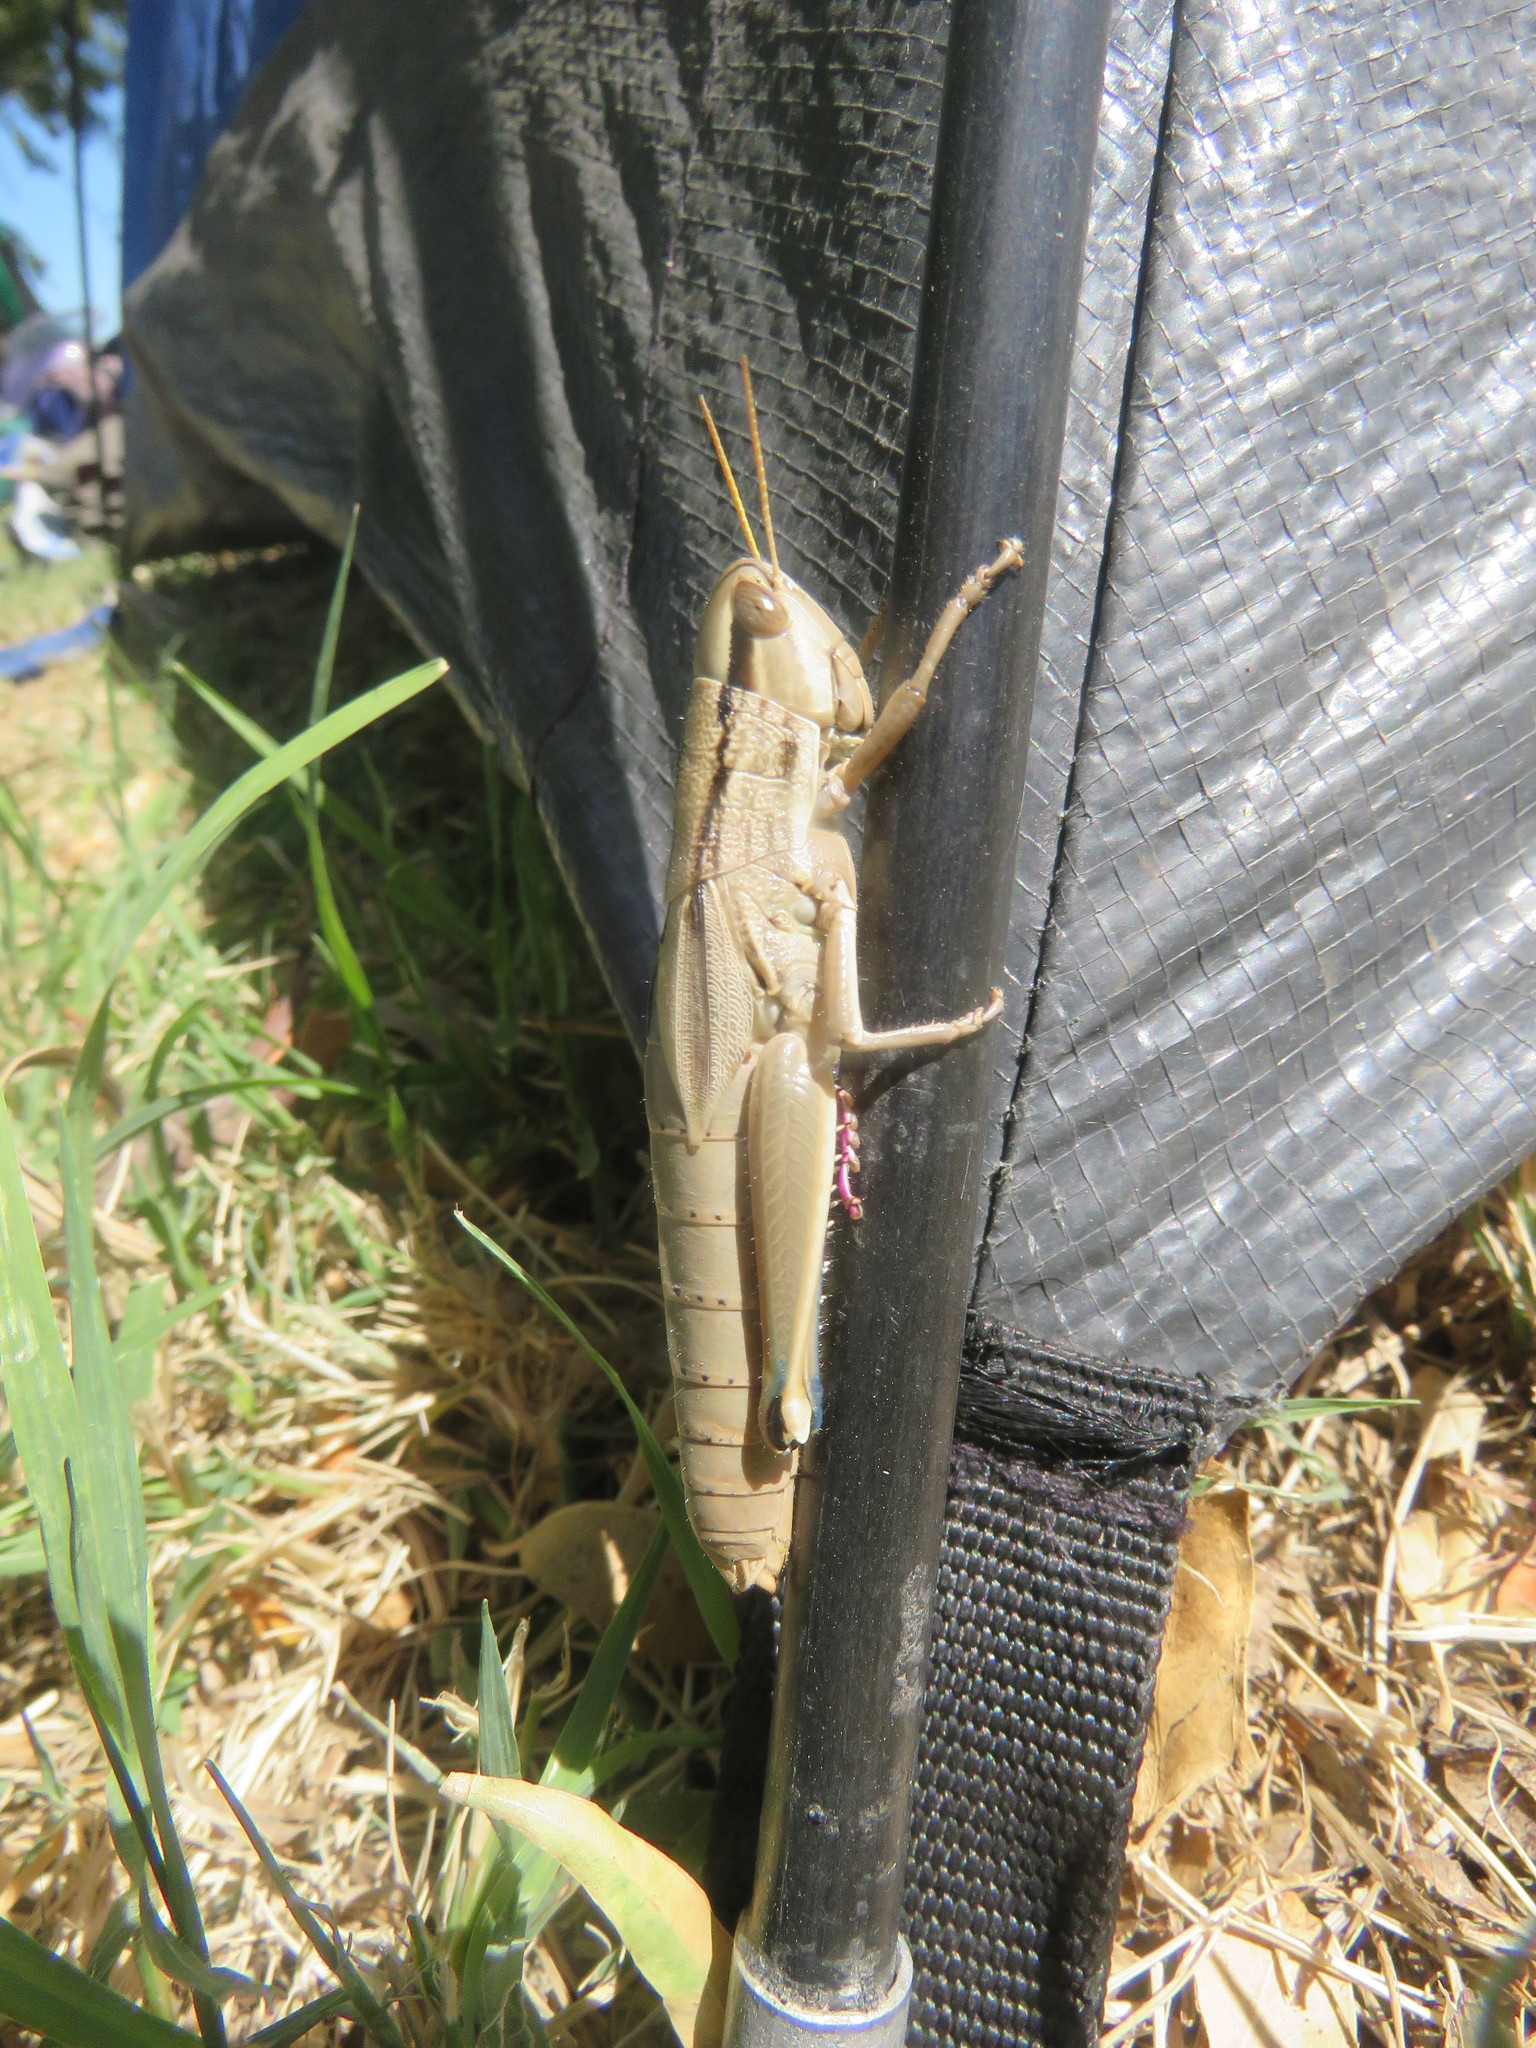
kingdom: Animalia
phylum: Arthropoda
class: Insecta
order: Orthoptera
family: Acrididae
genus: Aleuas
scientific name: Aleuas vitticollis
